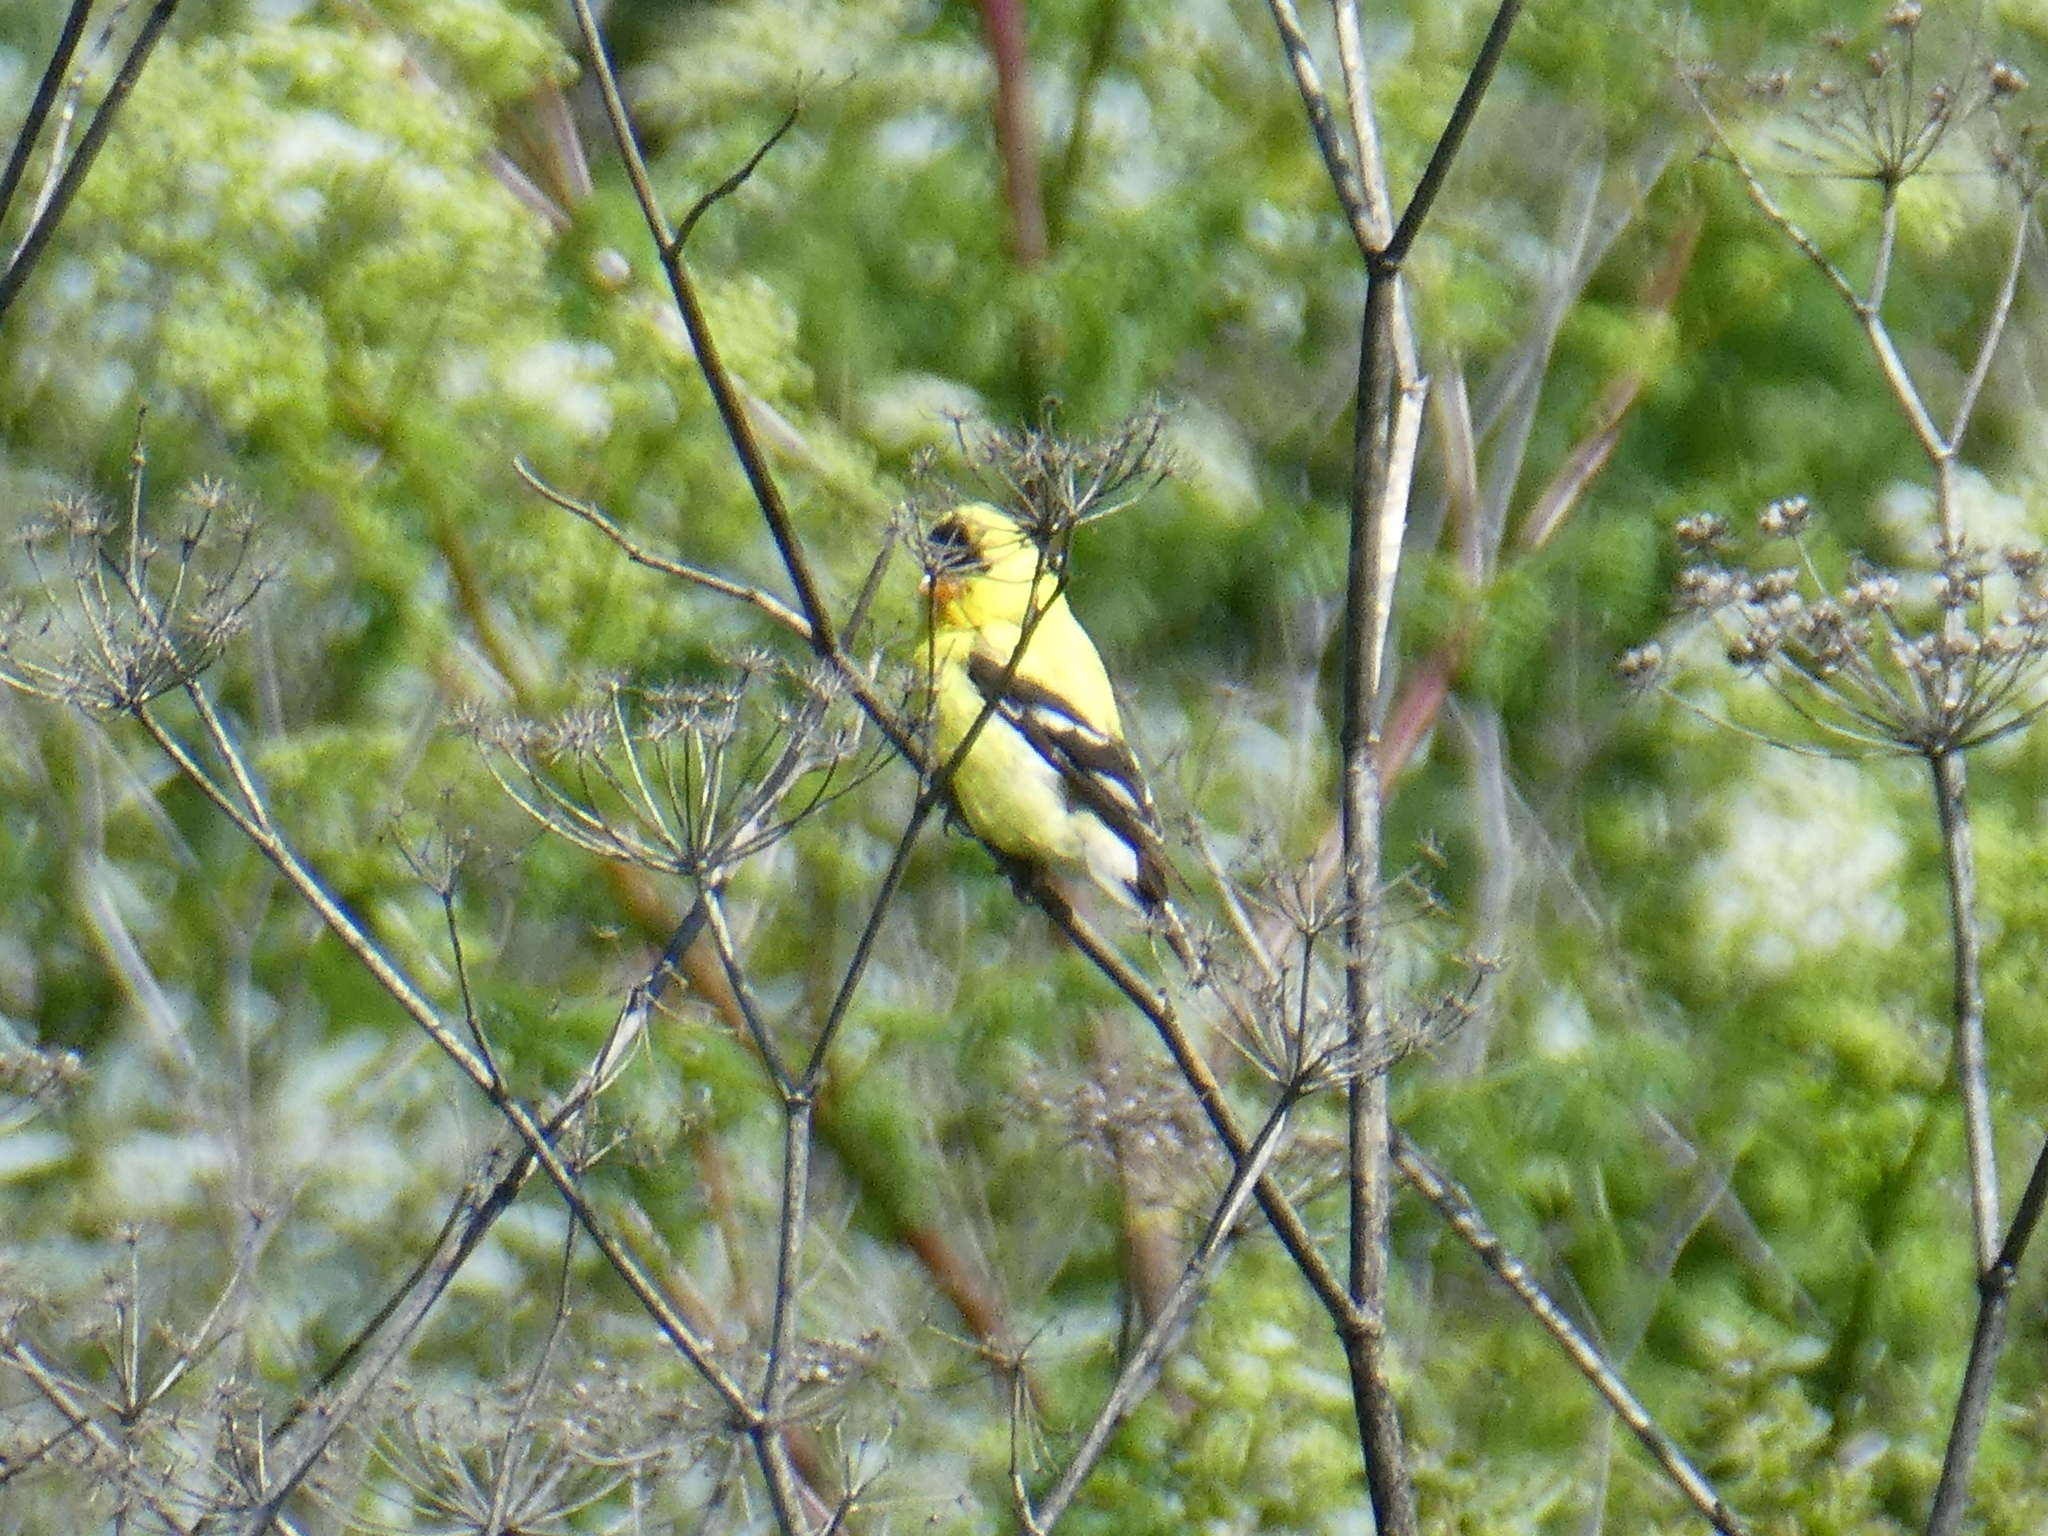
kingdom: Animalia
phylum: Chordata
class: Aves
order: Passeriformes
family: Fringillidae
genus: Spinus
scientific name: Spinus tristis
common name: American goldfinch
